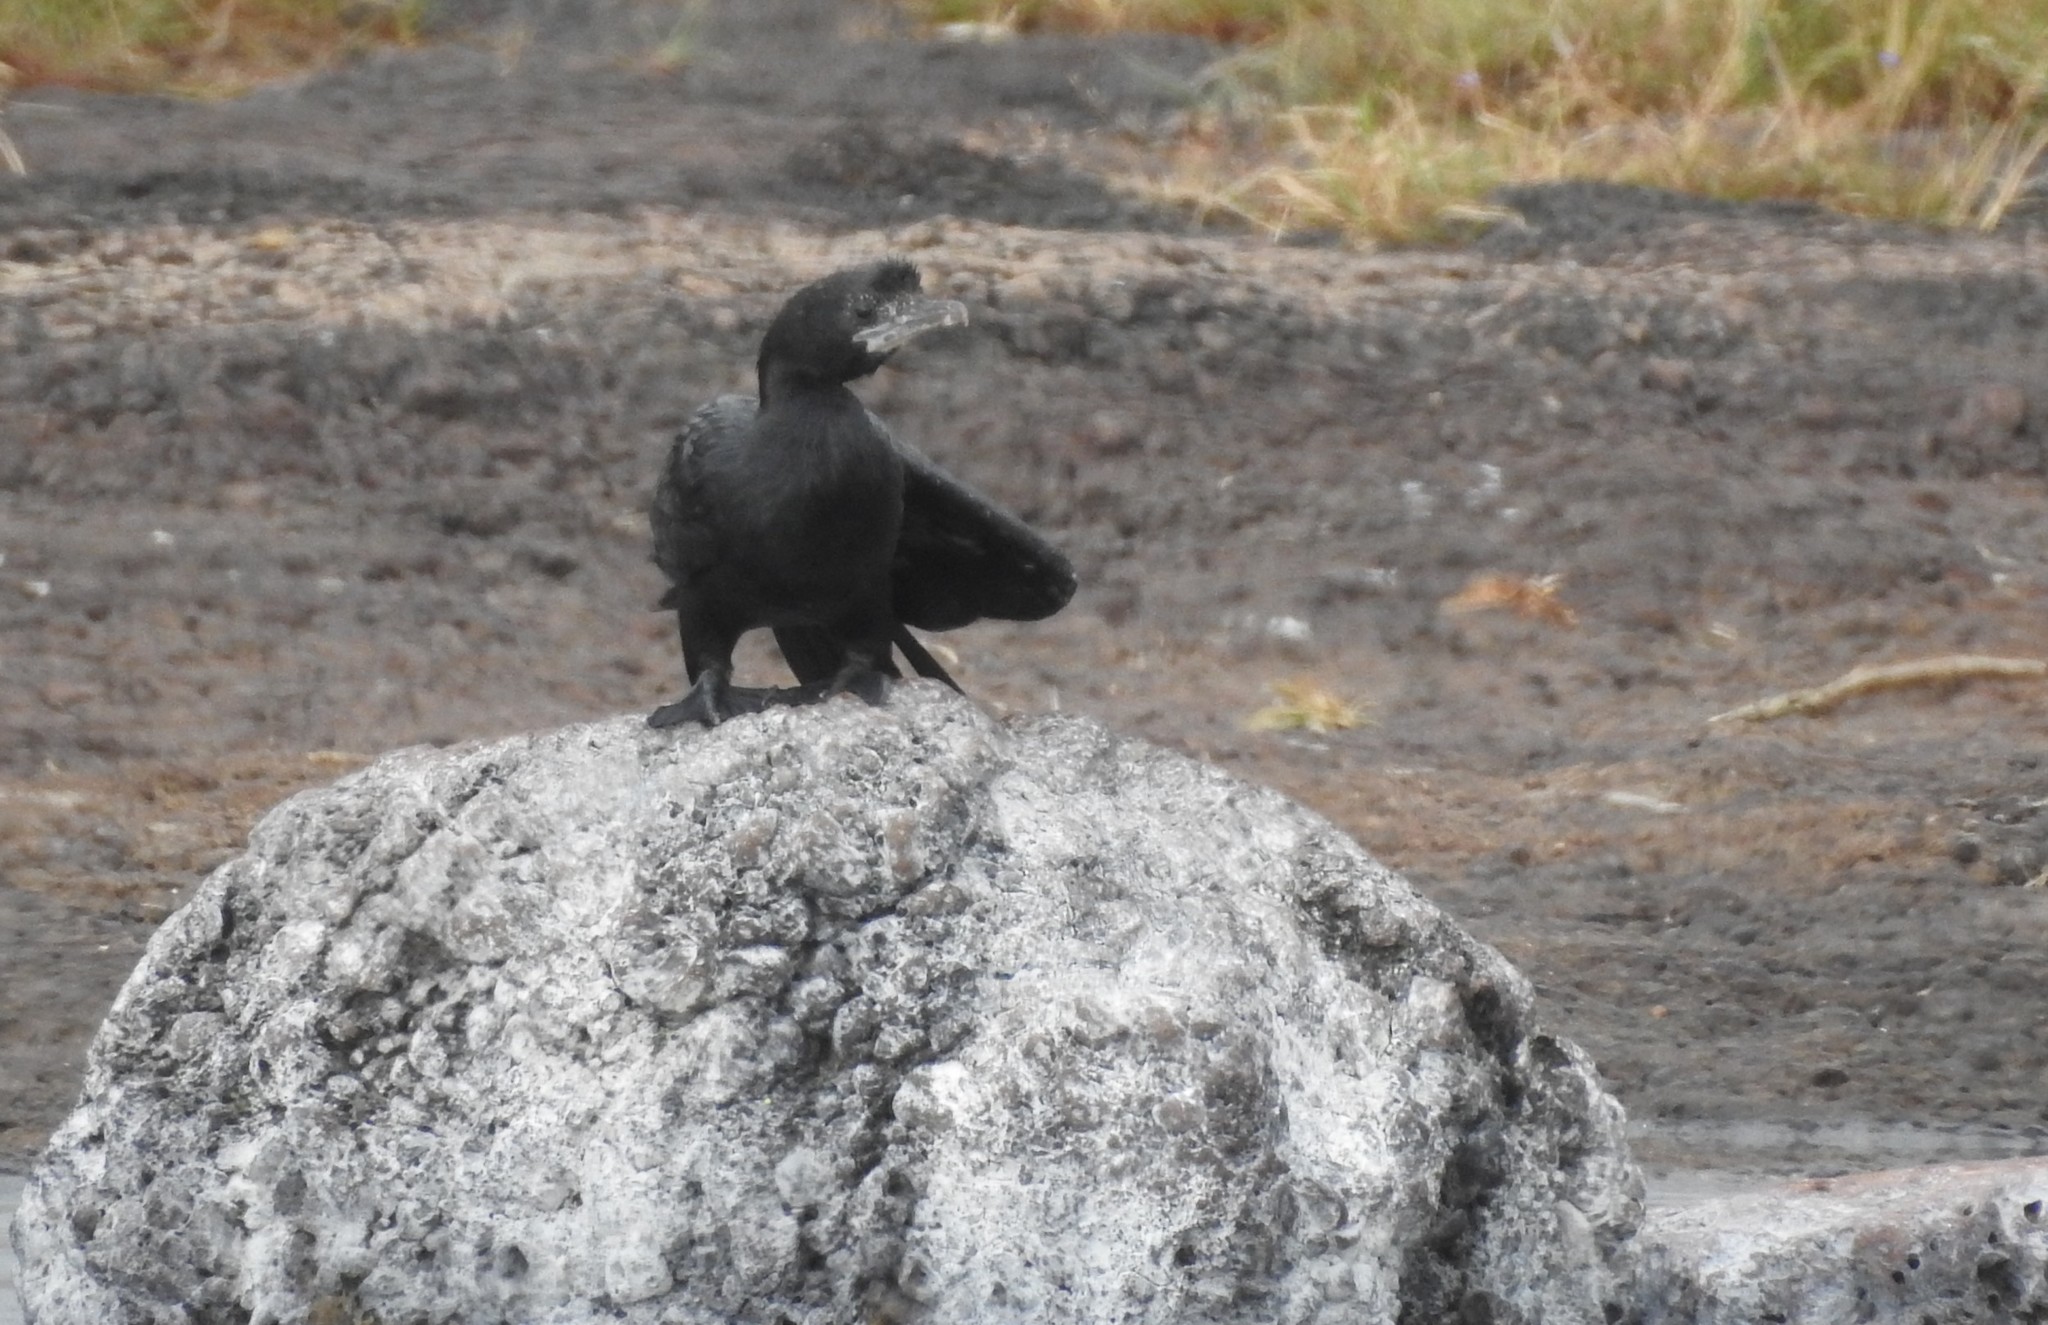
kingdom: Animalia
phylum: Chordata
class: Aves
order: Suliformes
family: Phalacrocoracidae
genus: Microcarbo
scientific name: Microcarbo niger
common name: Little cormorant
